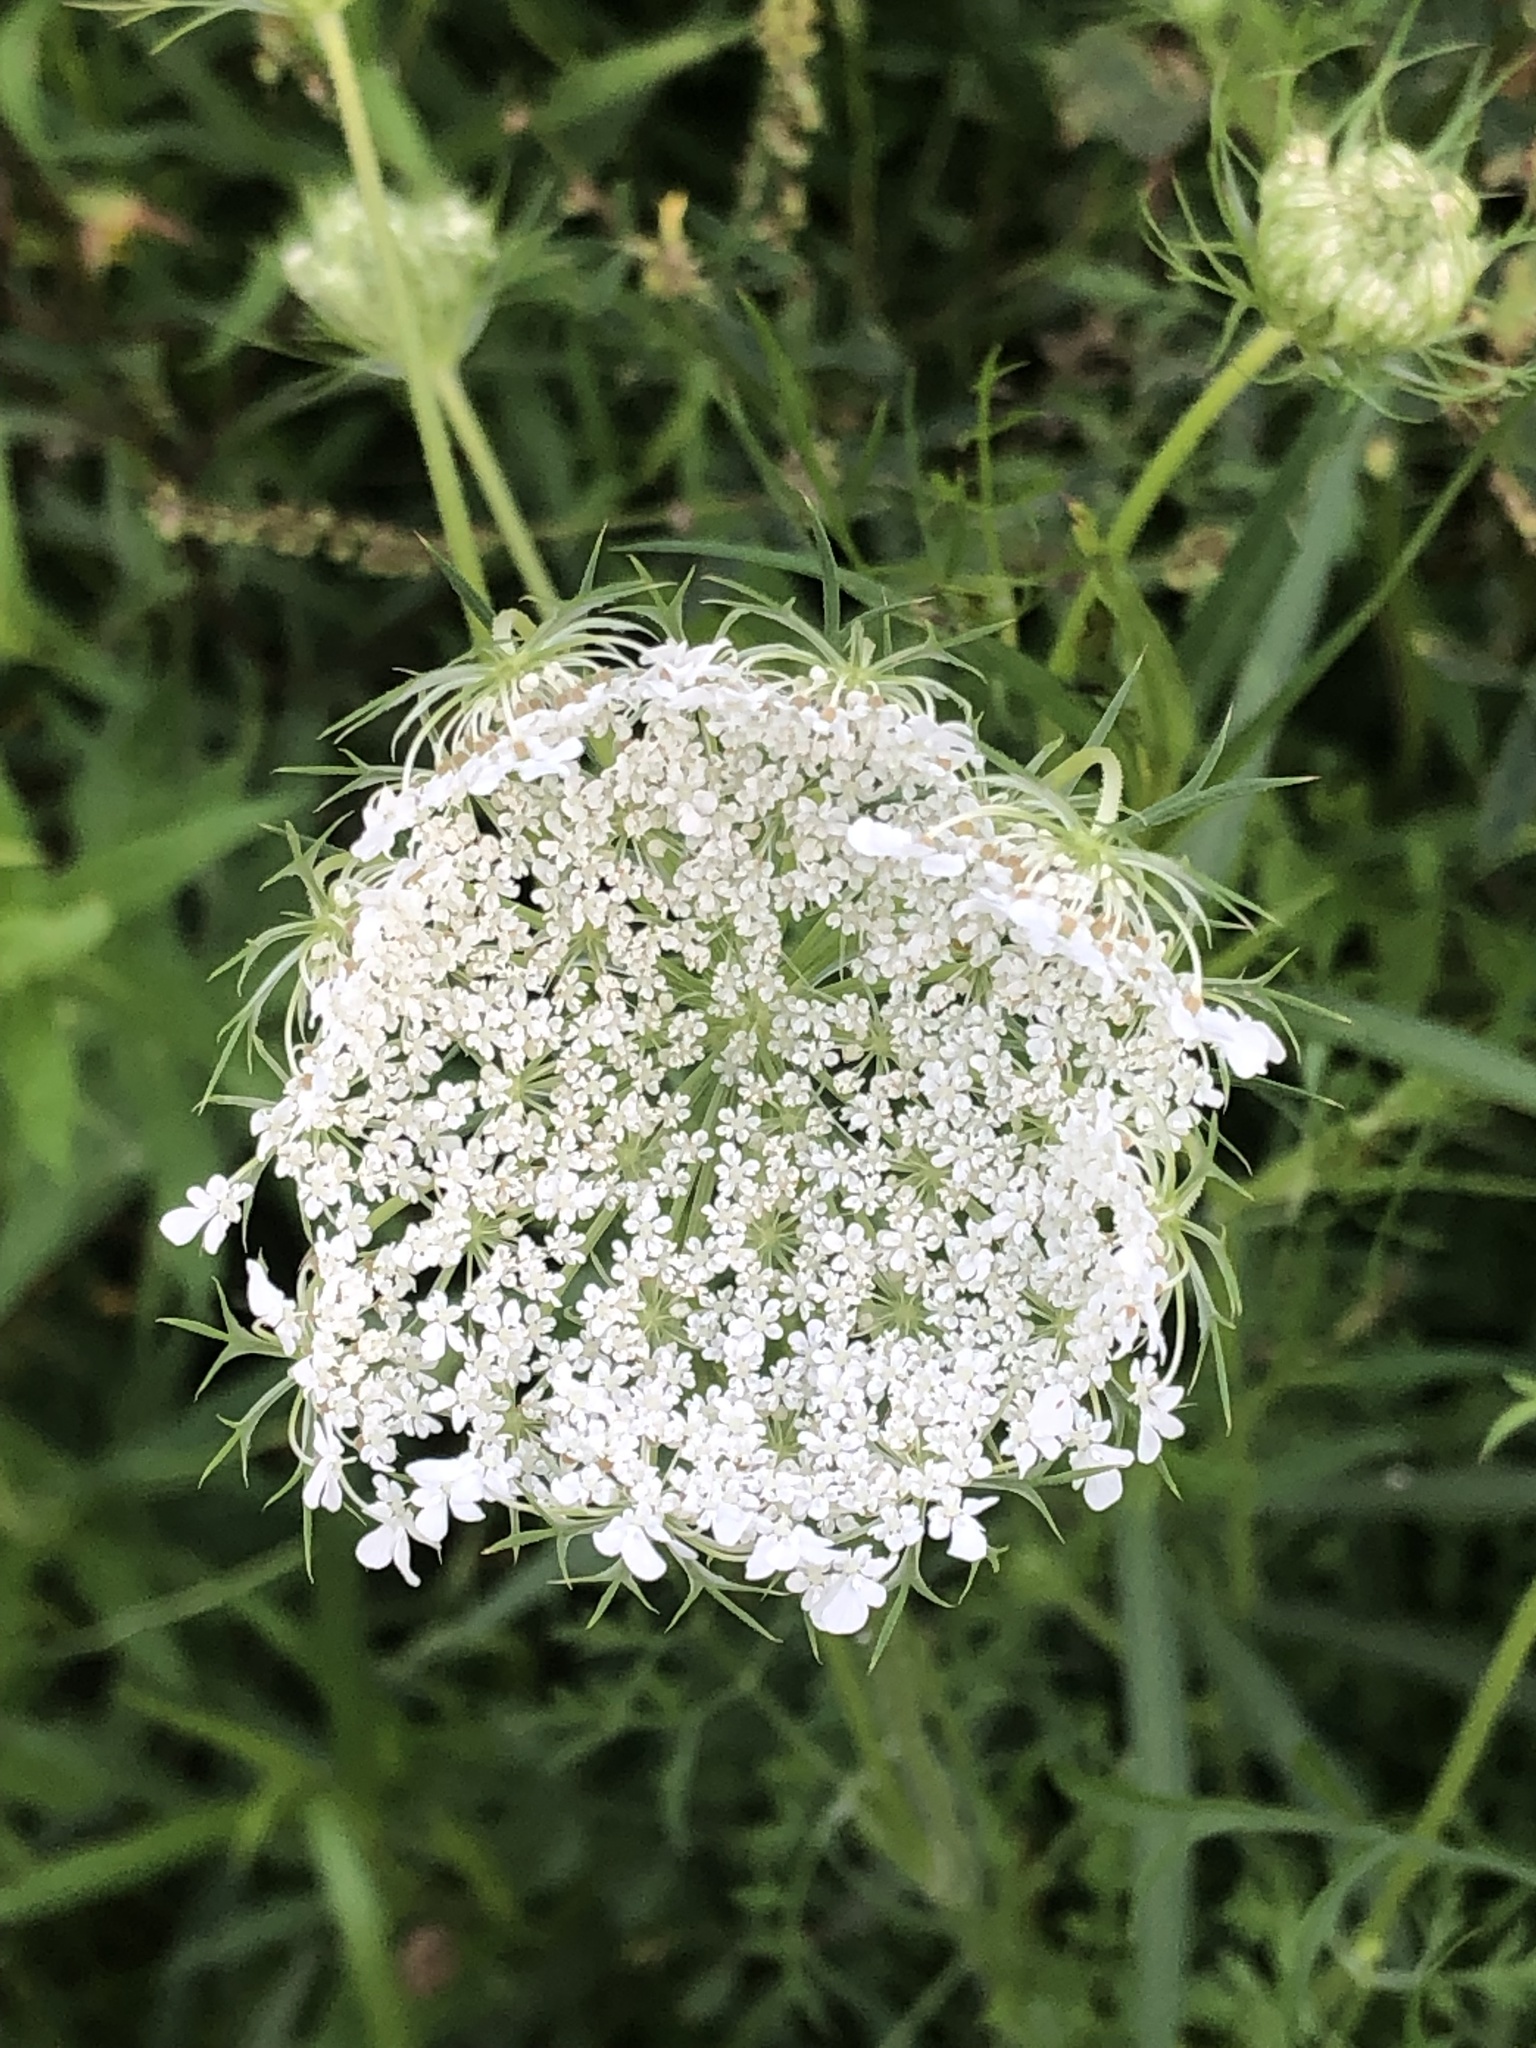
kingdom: Plantae
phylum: Tracheophyta
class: Magnoliopsida
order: Apiales
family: Apiaceae
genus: Daucus
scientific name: Daucus carota
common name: Wild carrot
